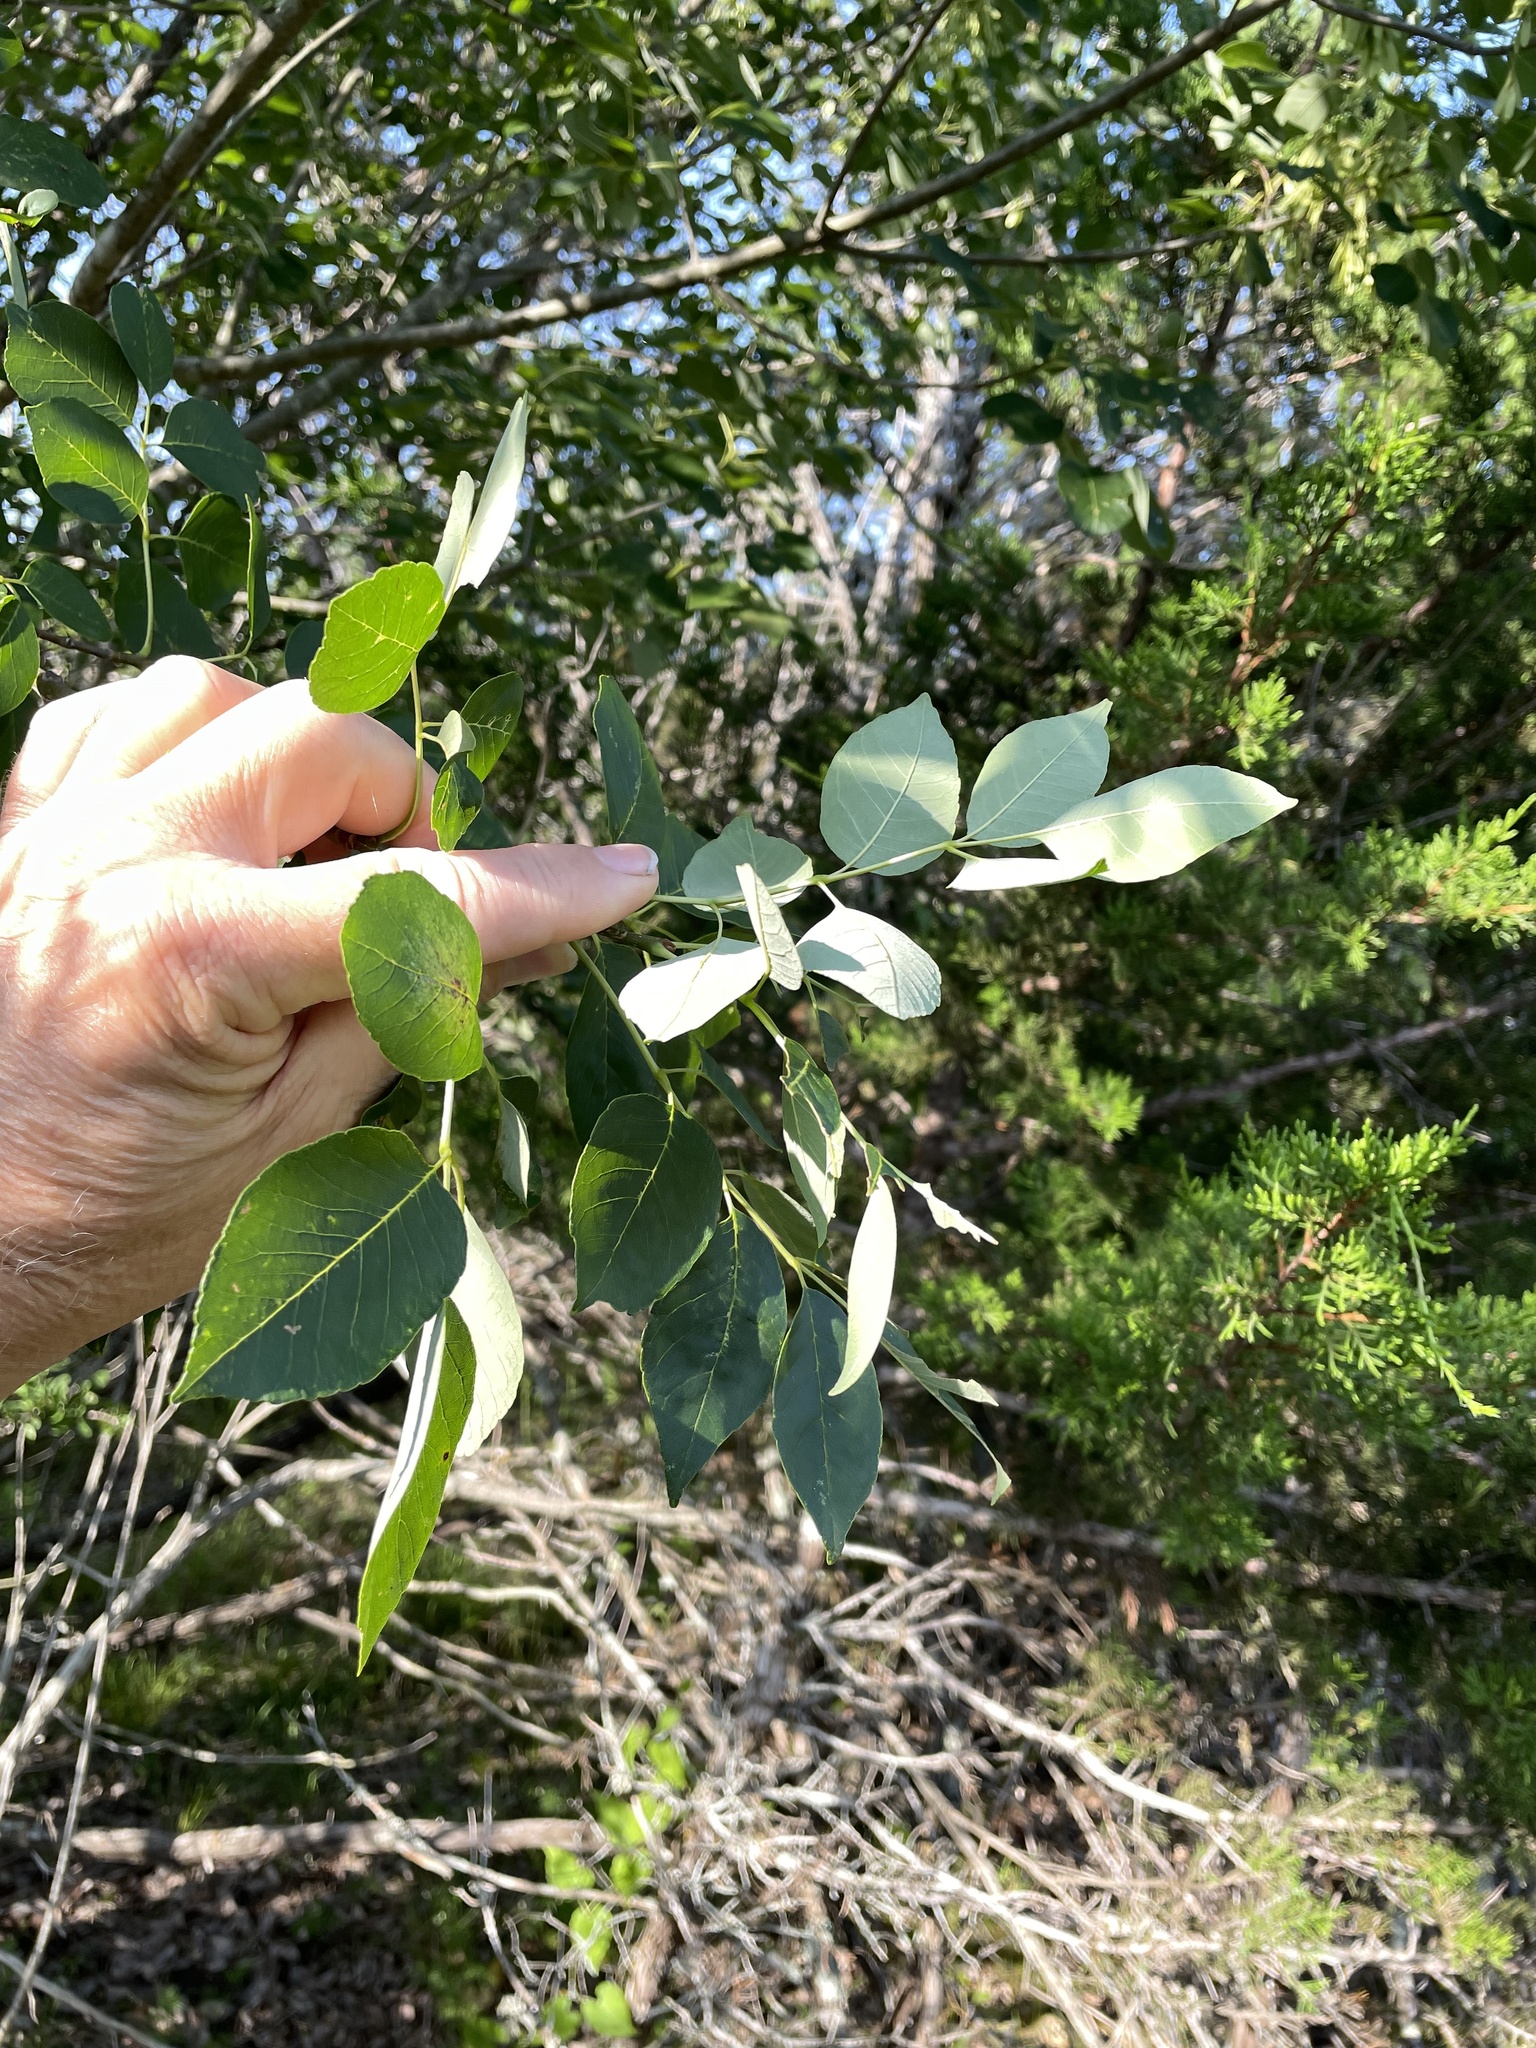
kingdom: Plantae
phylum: Tracheophyta
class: Magnoliopsida
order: Lamiales
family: Oleaceae
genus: Fraxinus
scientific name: Fraxinus albicans
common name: Texas ash
